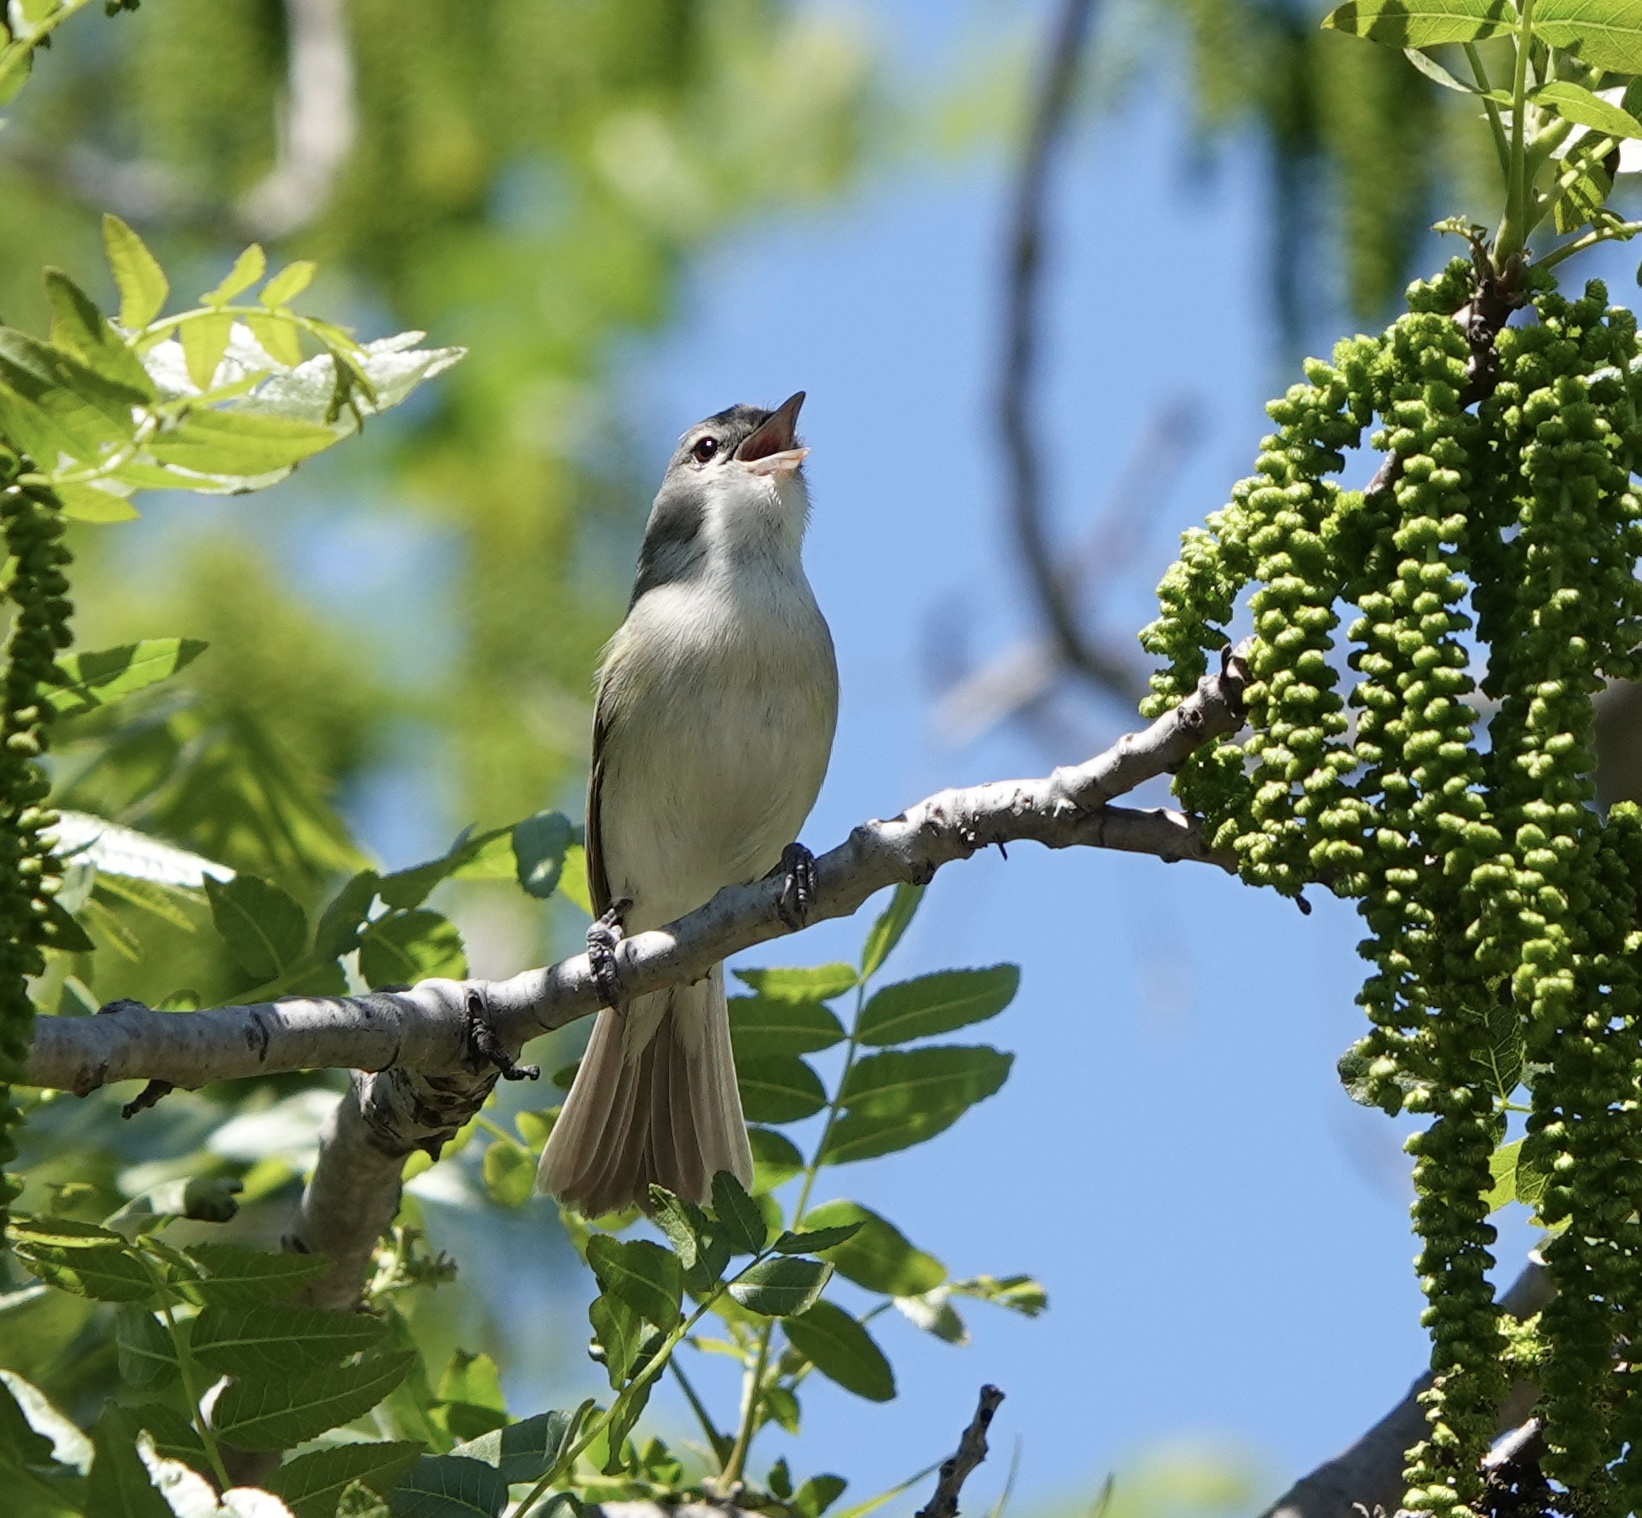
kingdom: Animalia
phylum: Chordata
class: Aves
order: Passeriformes
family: Vireonidae
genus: Vireo
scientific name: Vireo bellii
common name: Bell's vireo
